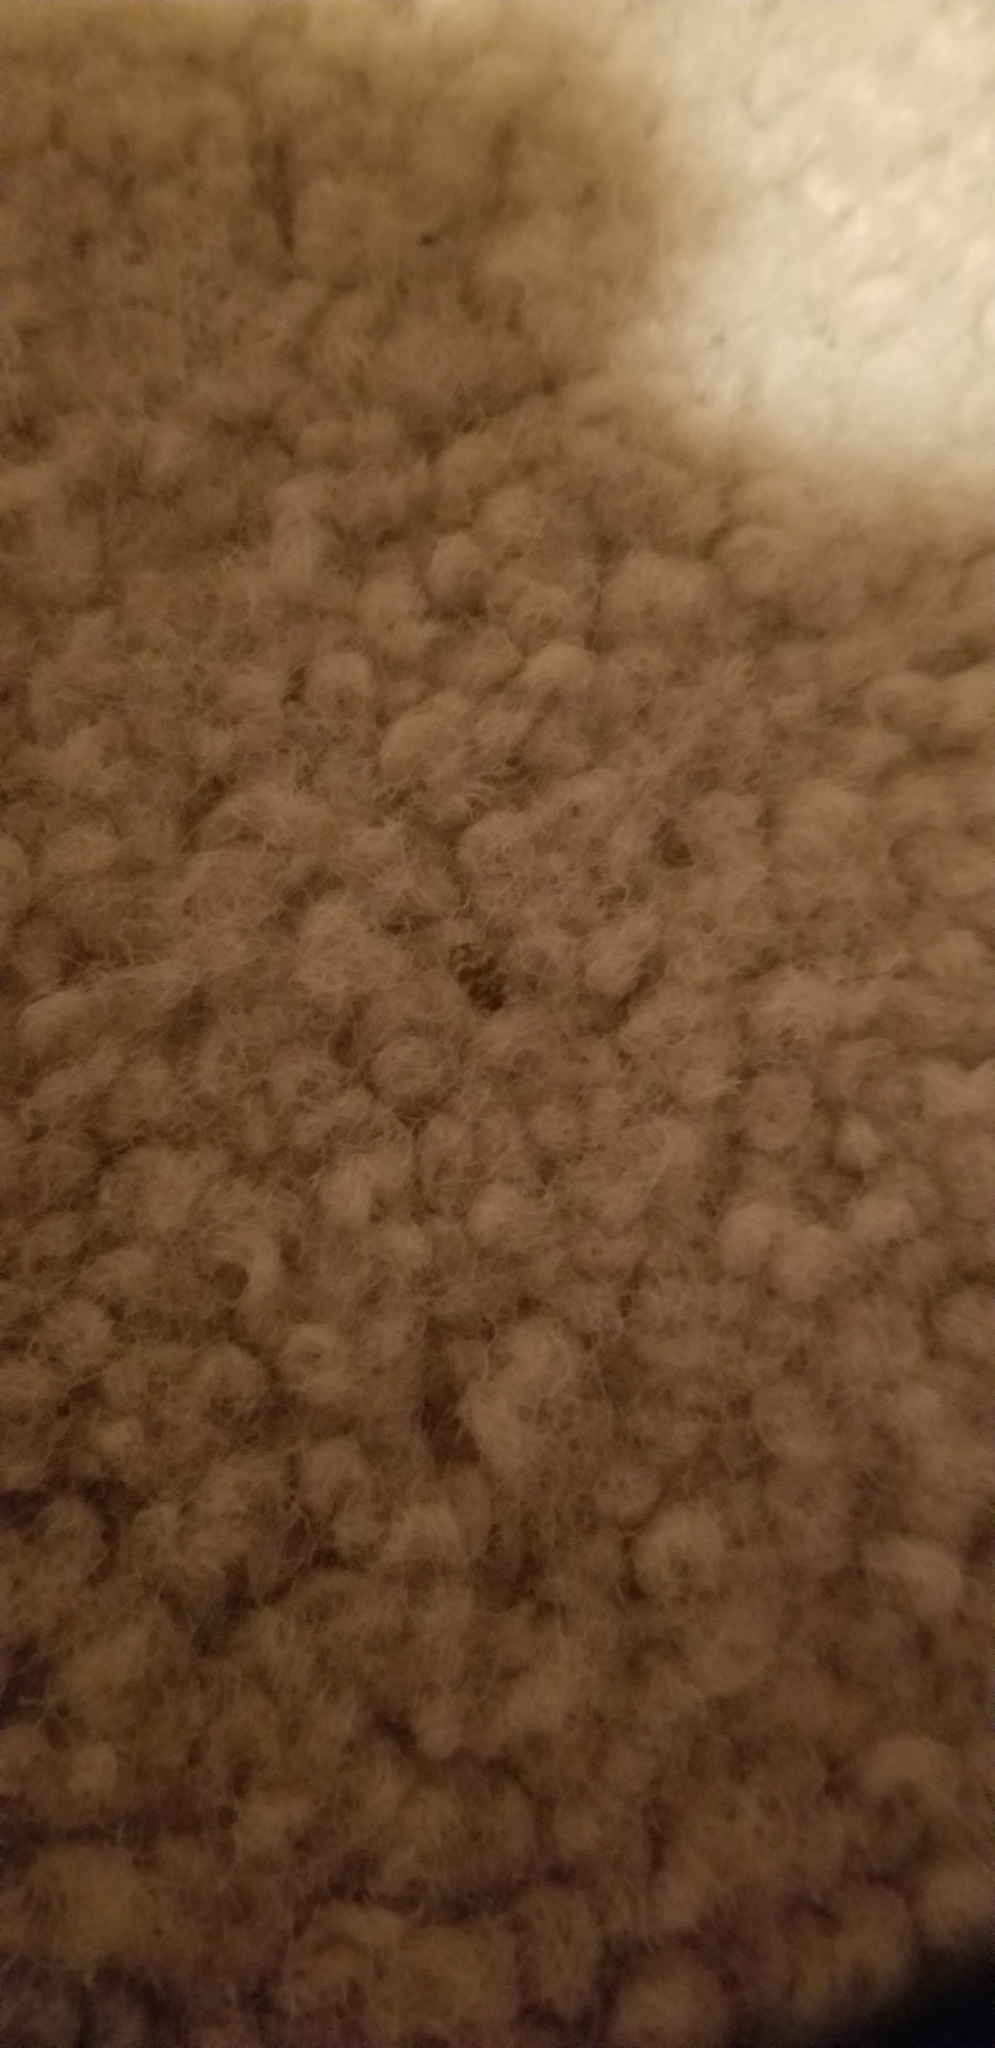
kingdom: Animalia
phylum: Arthropoda
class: Insecta
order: Coleoptera
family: Dermestidae
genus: Anthrenus
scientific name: Anthrenus verbasci
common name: Varied carpet beetle
